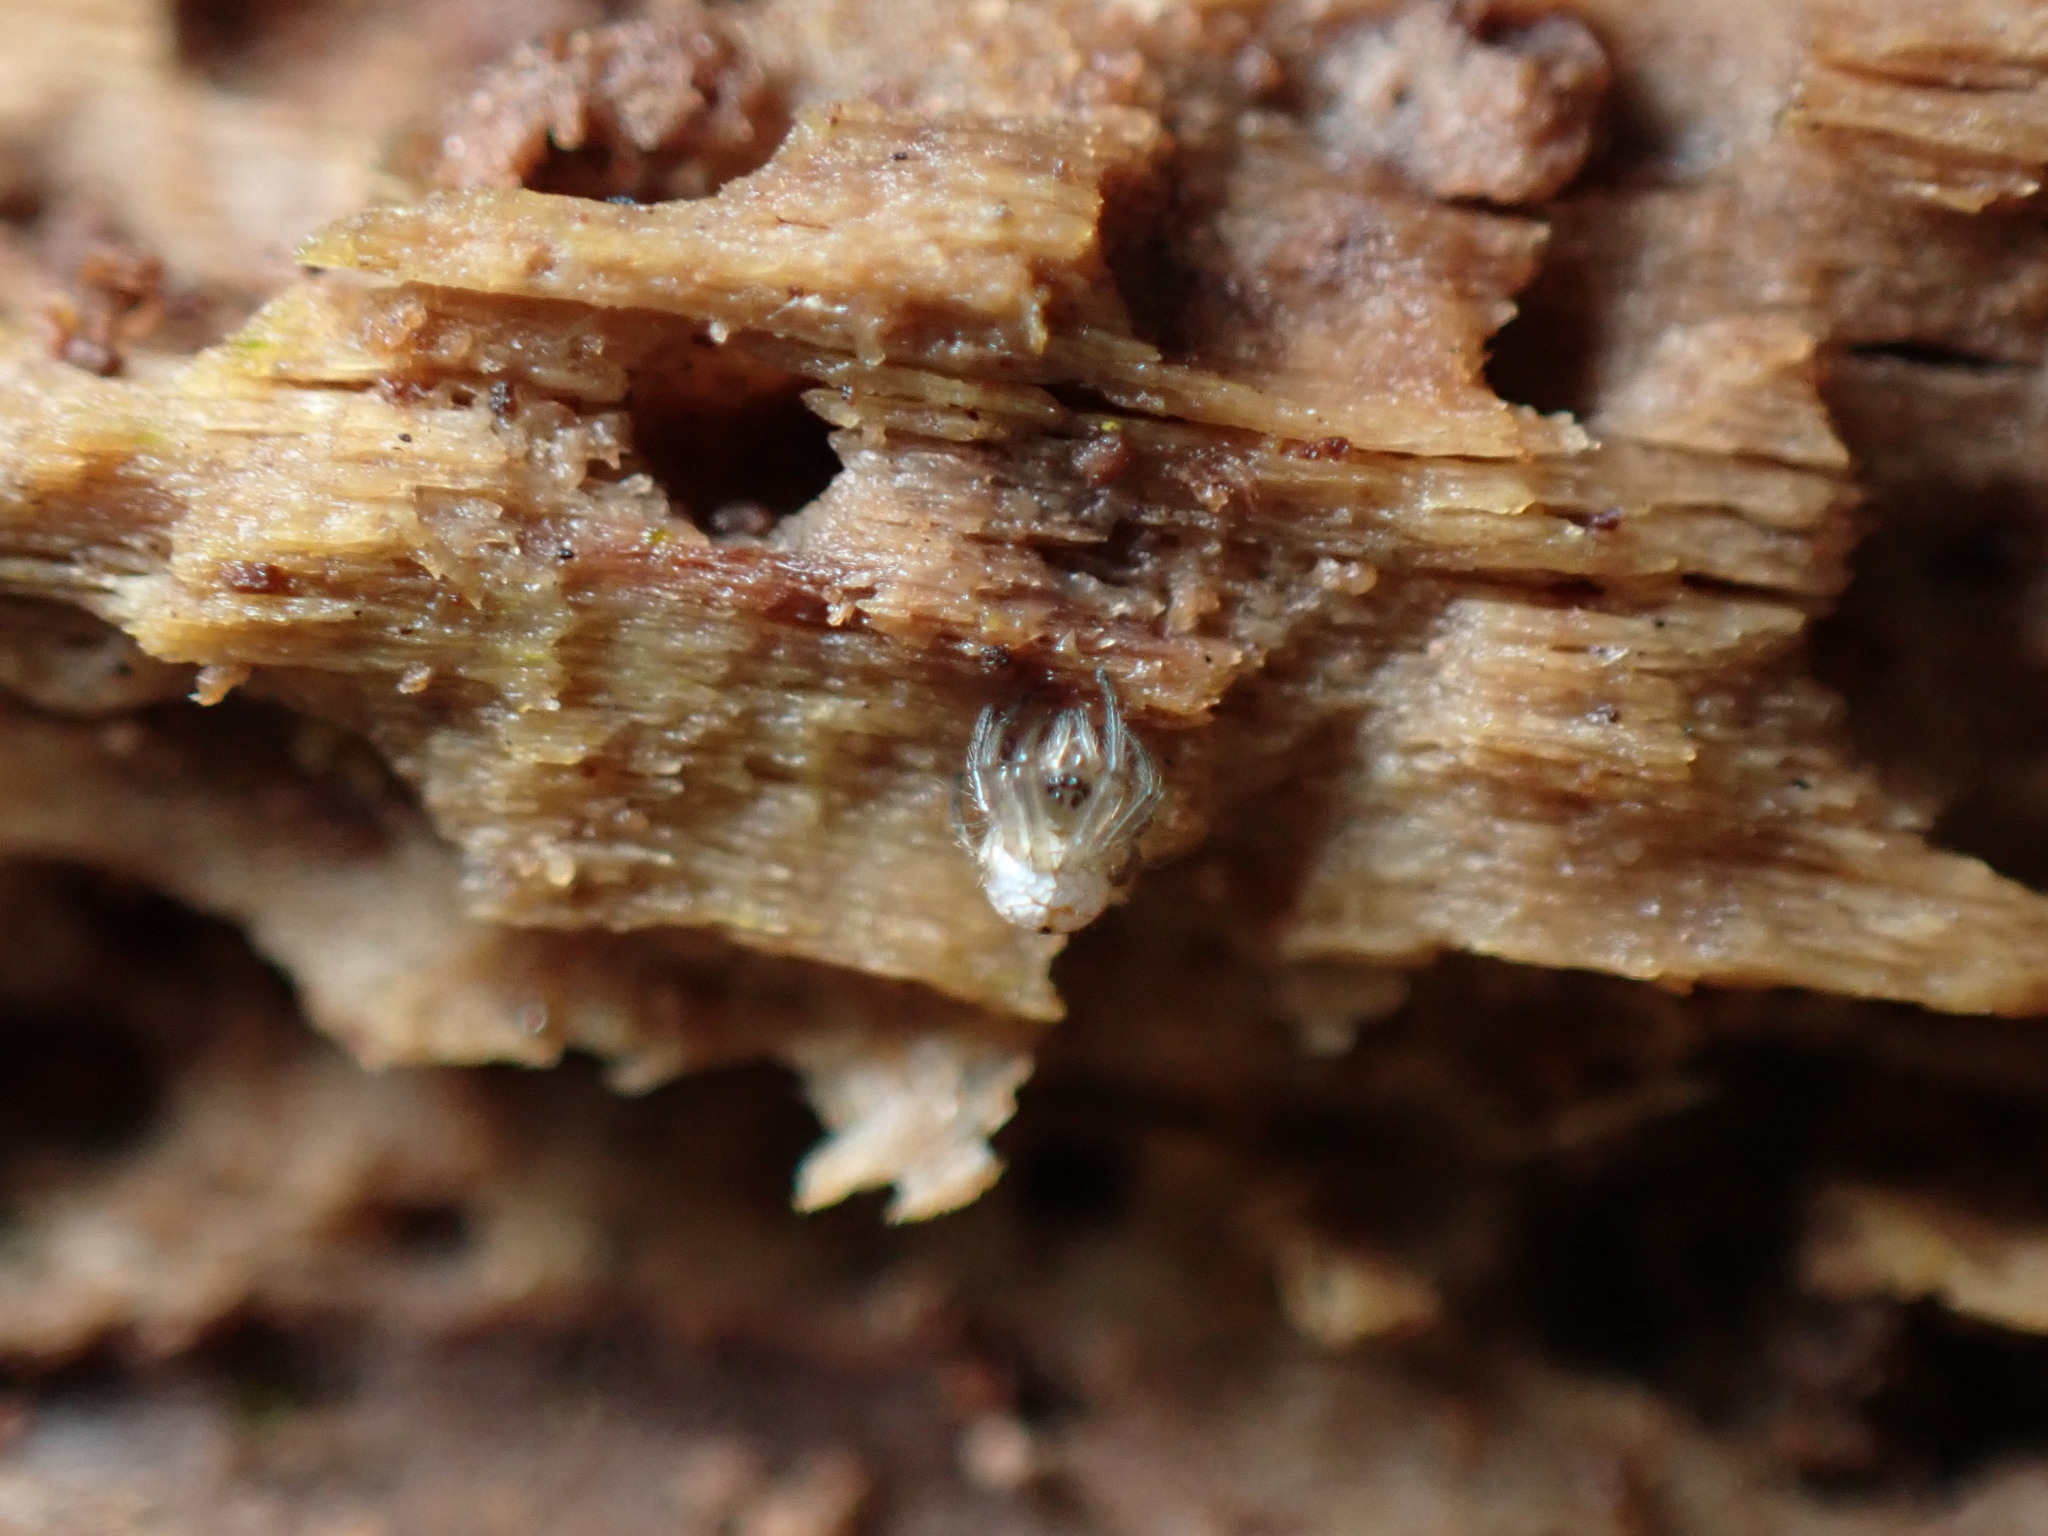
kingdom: Animalia
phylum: Arthropoda
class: Arachnida
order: Araneae
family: Tetragnathidae
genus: Leucauge
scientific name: Leucauge venusta
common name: Longjawed orb weavers
